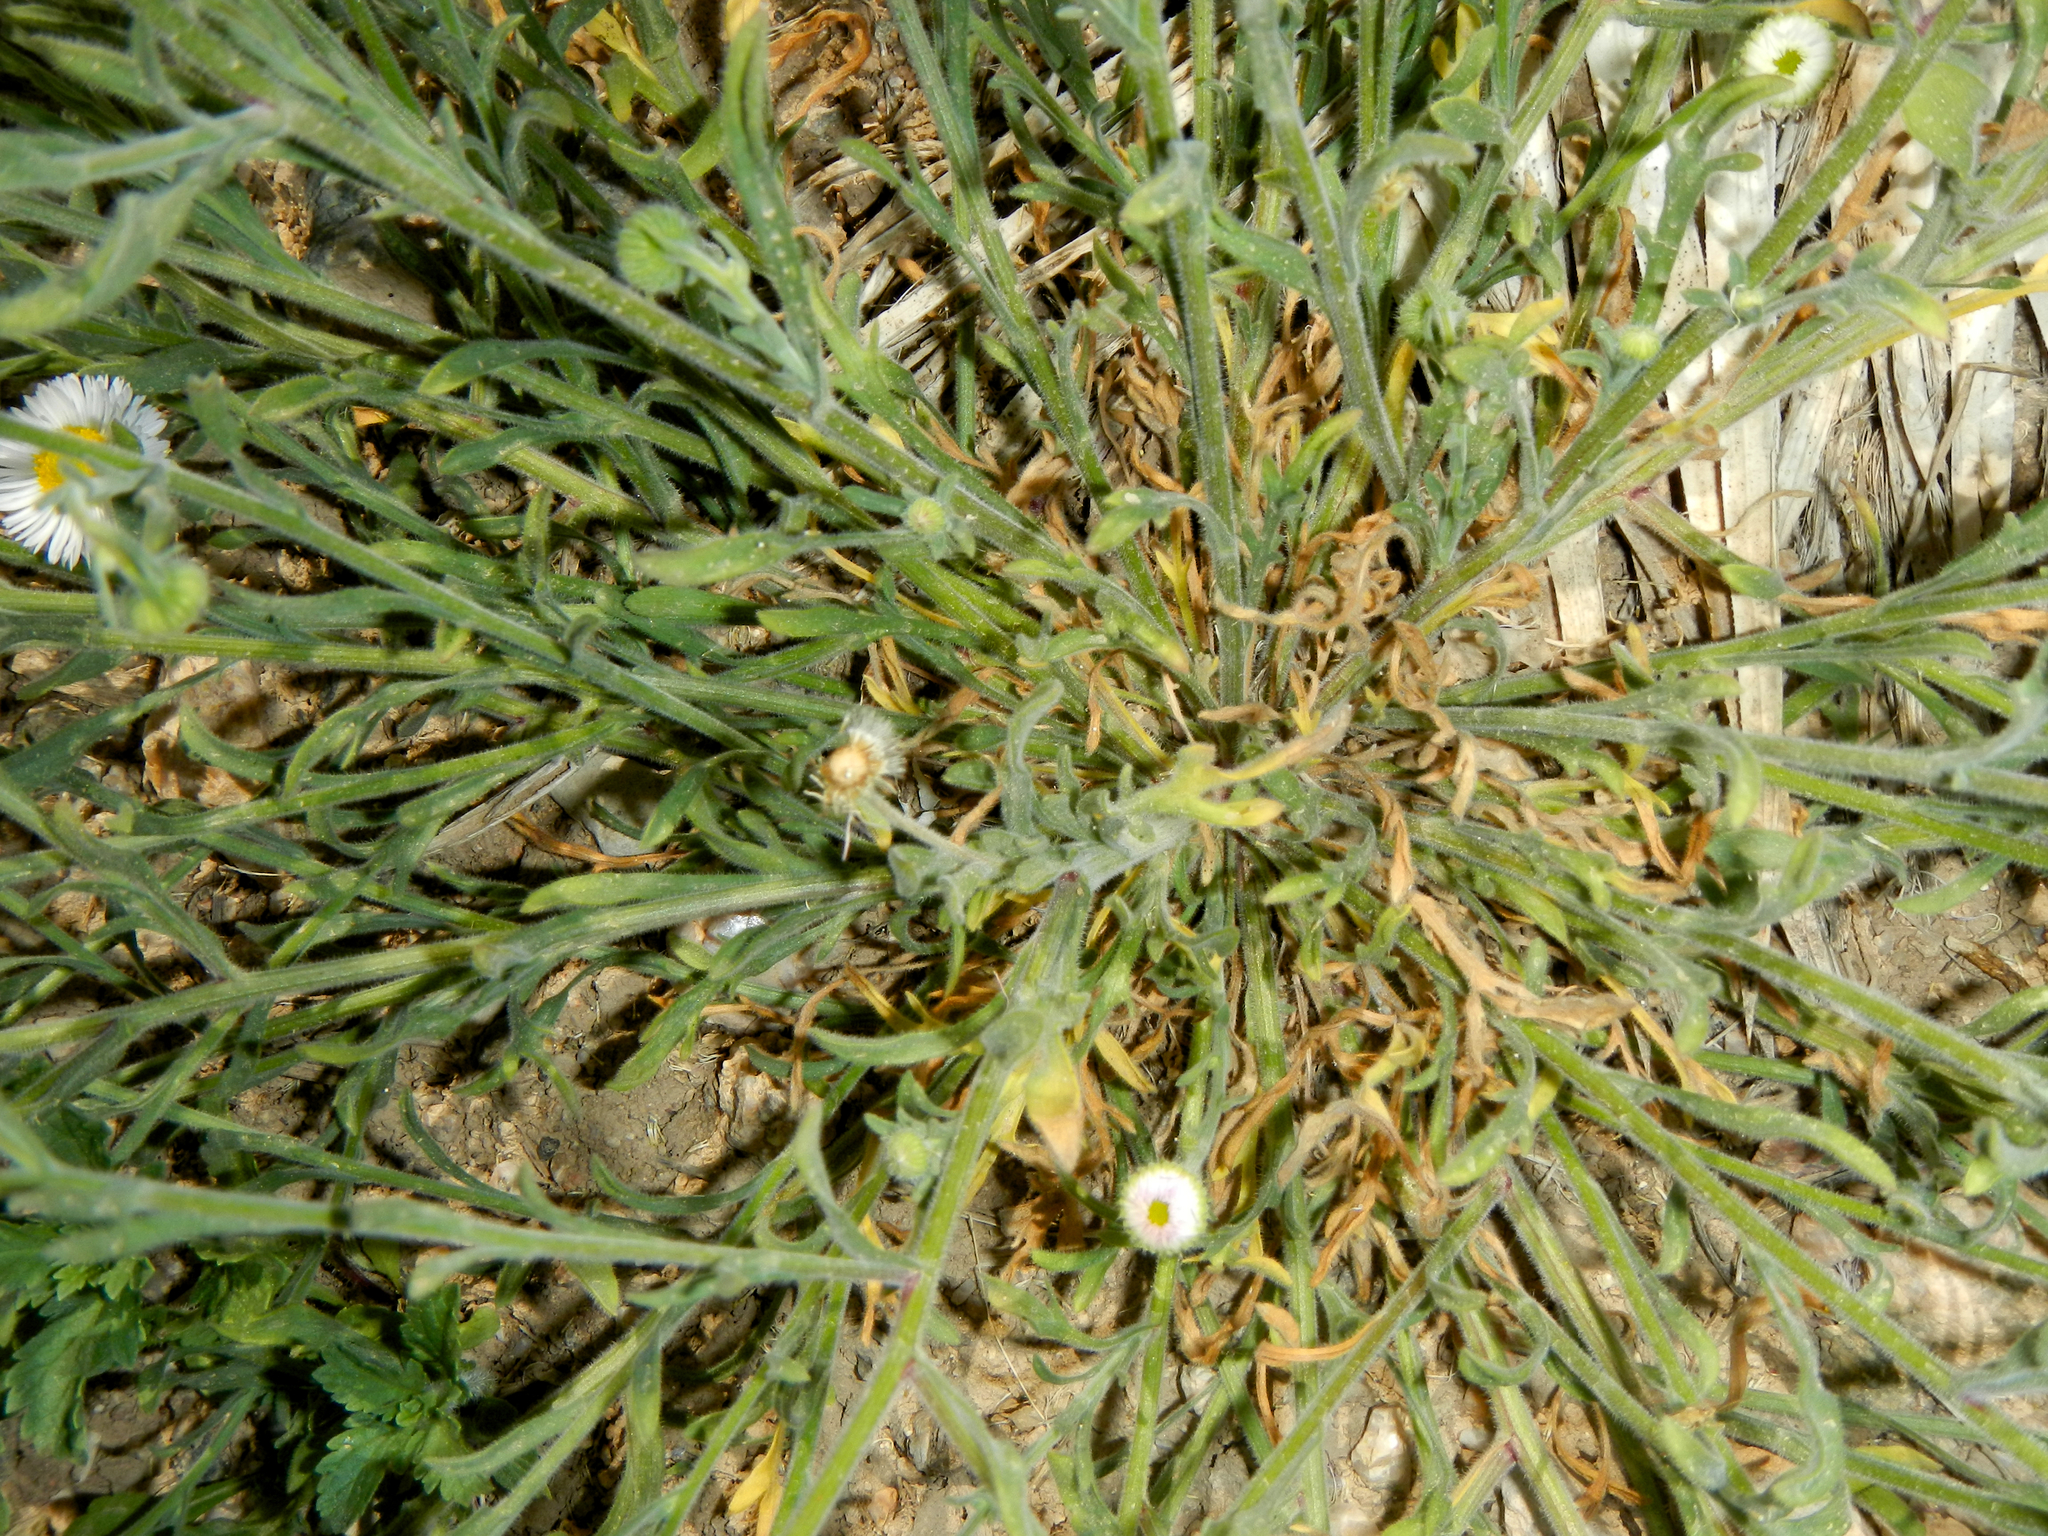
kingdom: Plantae
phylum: Tracheophyta
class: Magnoliopsida
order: Asterales
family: Asteraceae
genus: Erigeron
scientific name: Erigeron divergens
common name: Diffuse fleabane
